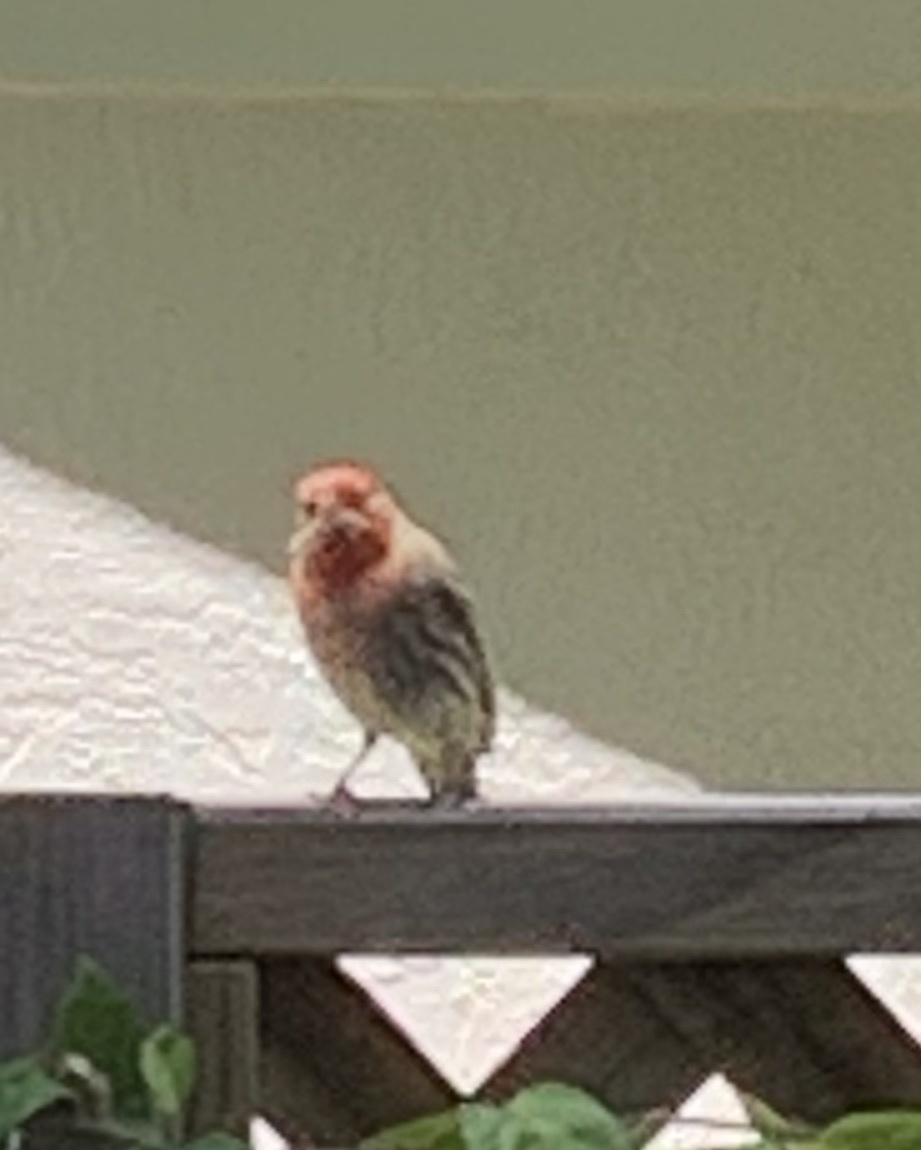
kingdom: Animalia
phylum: Chordata
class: Aves
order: Passeriformes
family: Fringillidae
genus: Haemorhous
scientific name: Haemorhous mexicanus
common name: House finch
